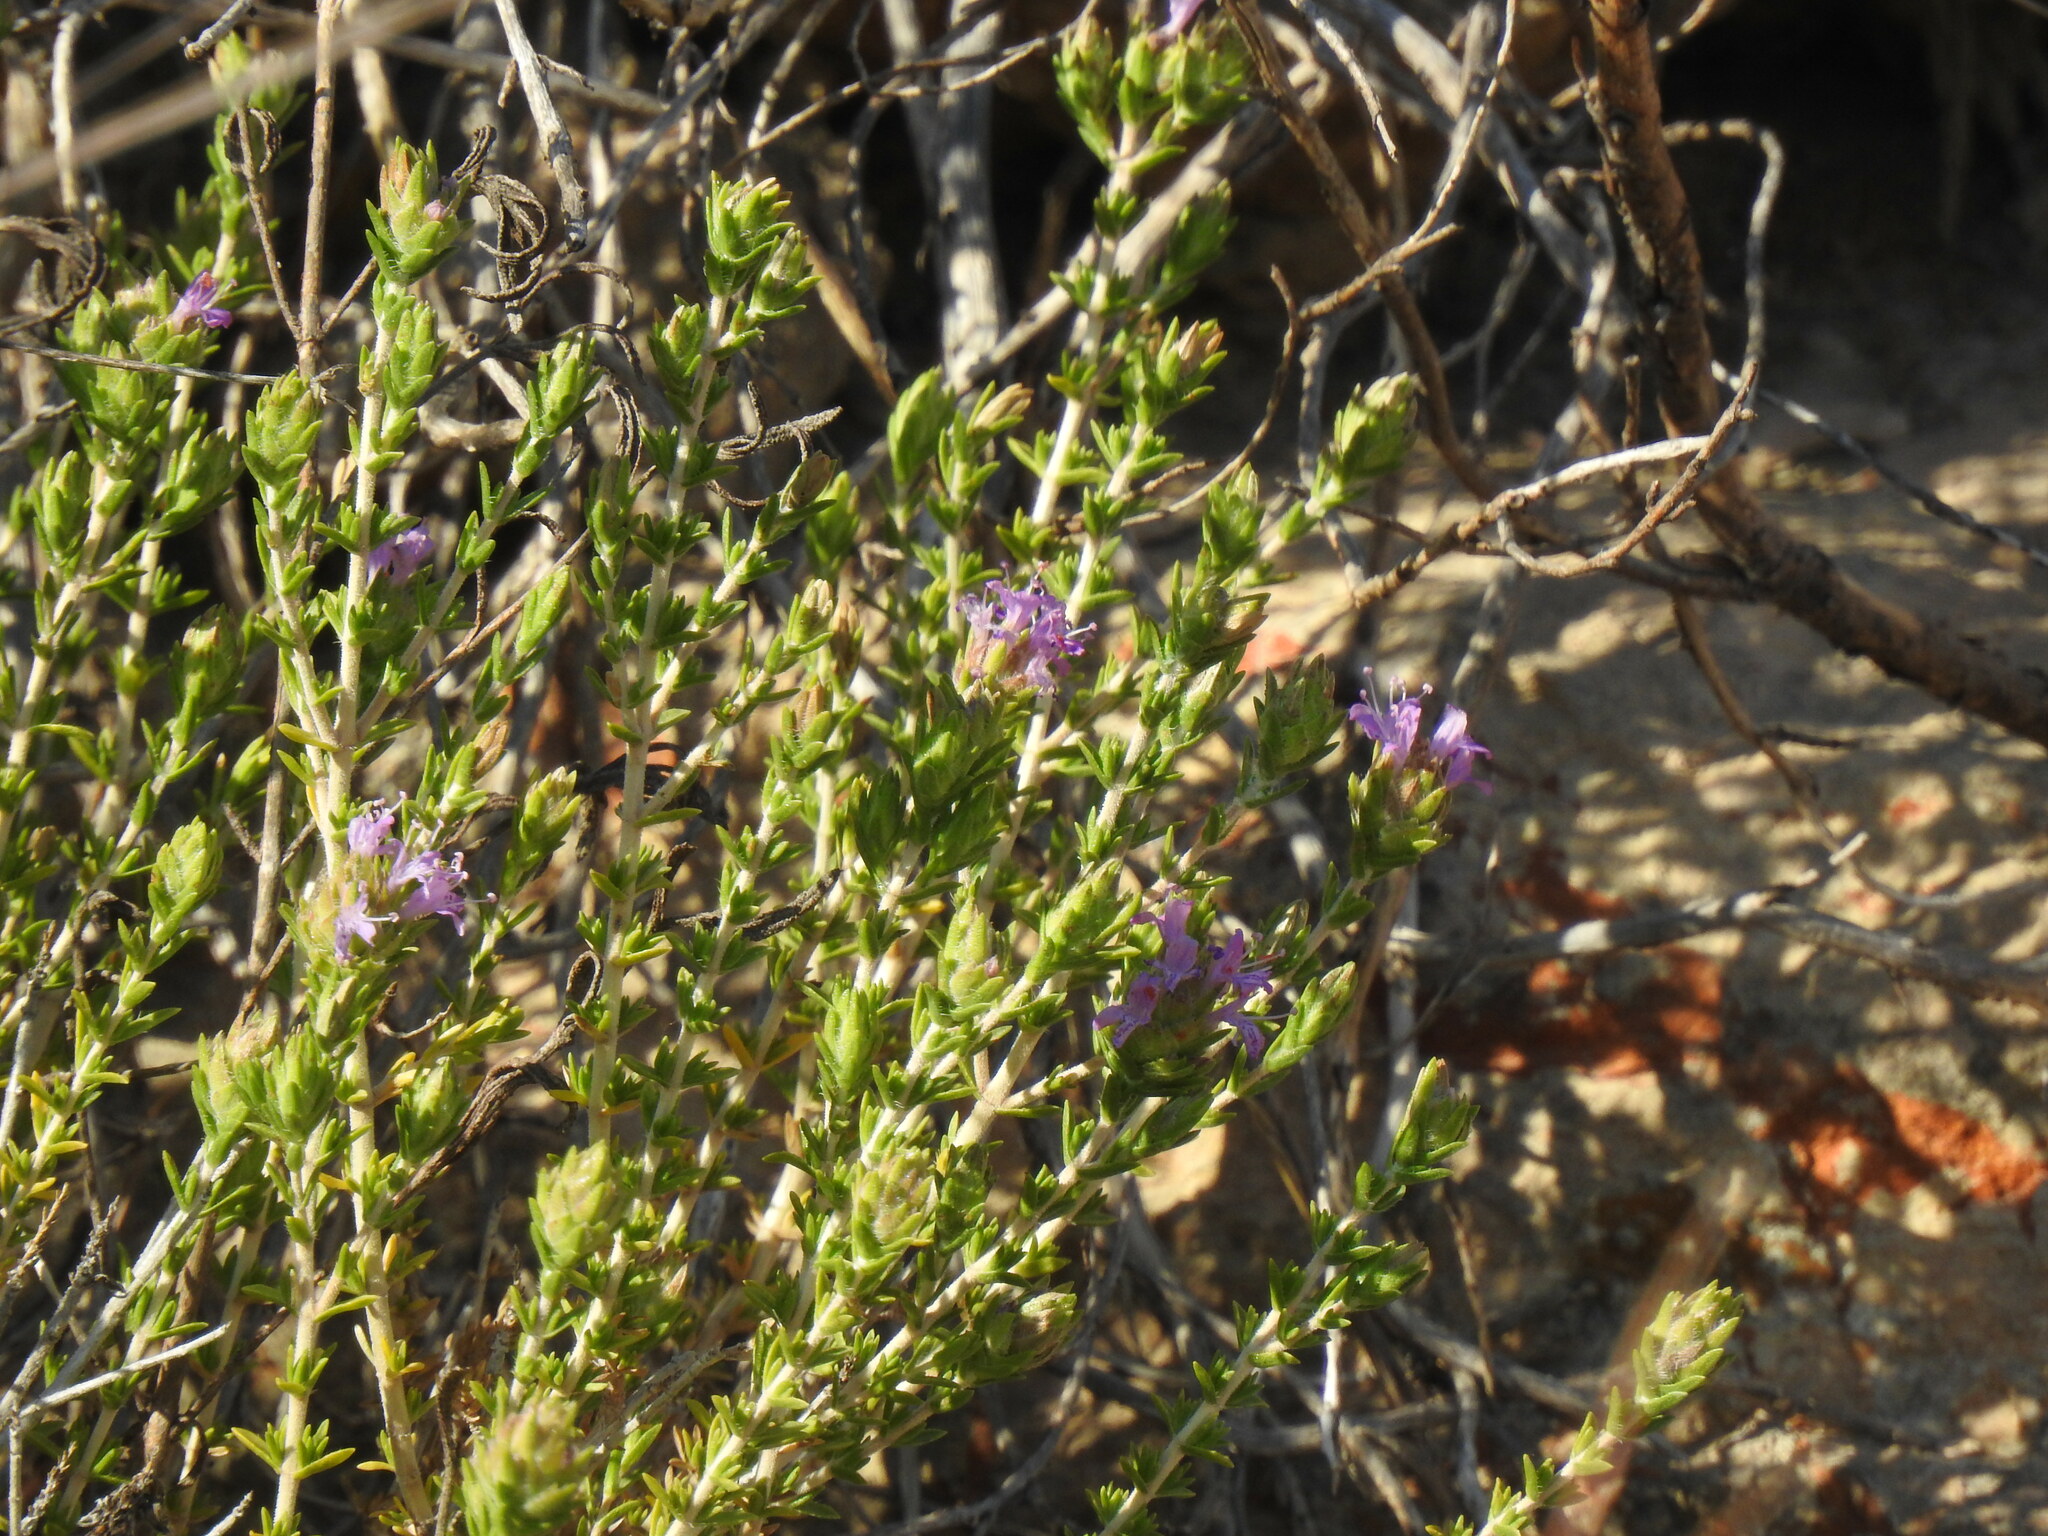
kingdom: Plantae
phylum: Tracheophyta
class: Magnoliopsida
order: Lamiales
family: Lamiaceae
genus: Thymbra
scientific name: Thymbra capitata
